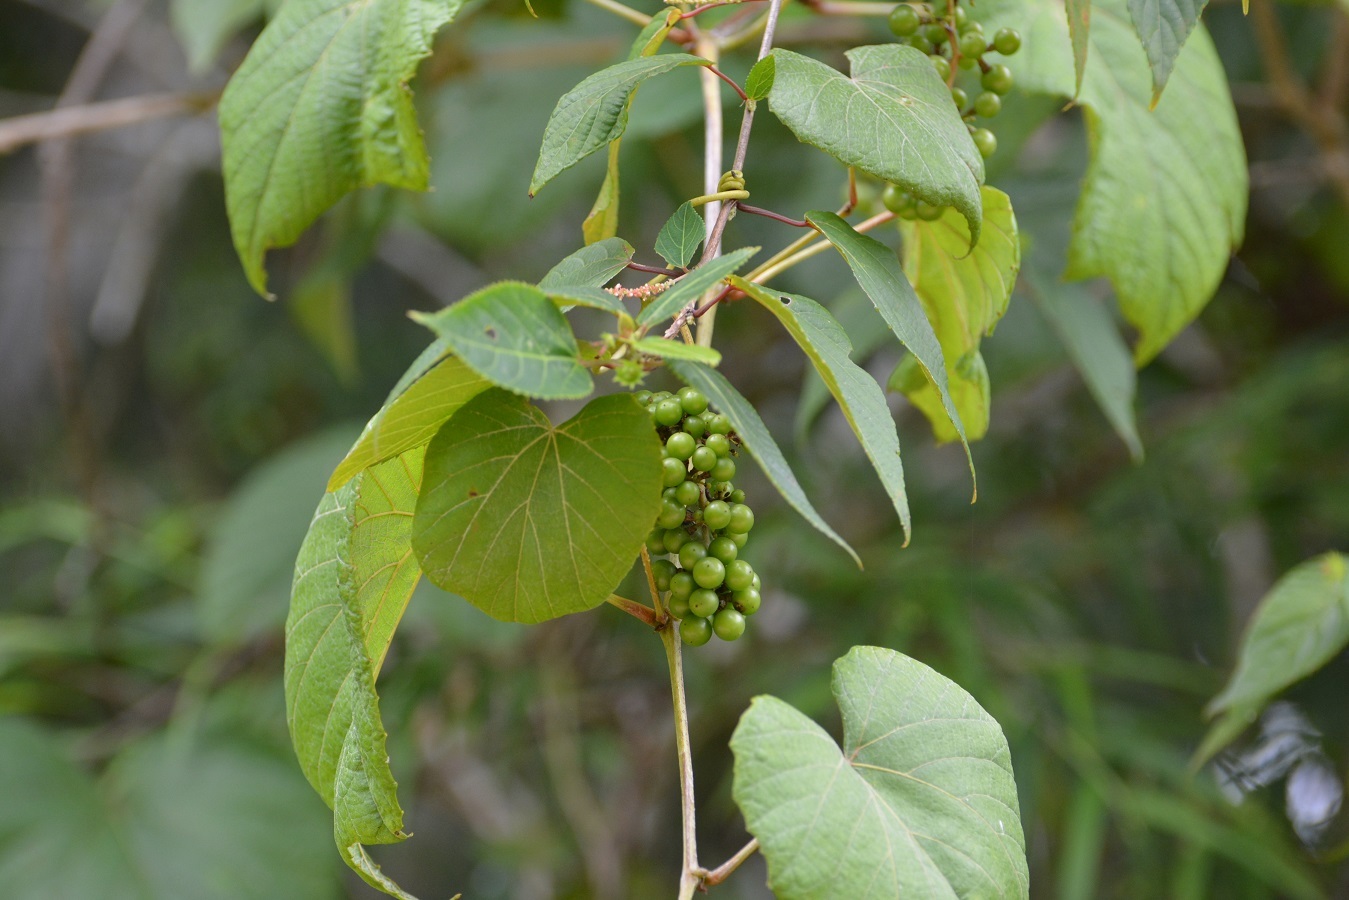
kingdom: Plantae
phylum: Tracheophyta
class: Magnoliopsida
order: Vitales
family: Vitaceae
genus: Vitis
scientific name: Vitis tiliifolia
